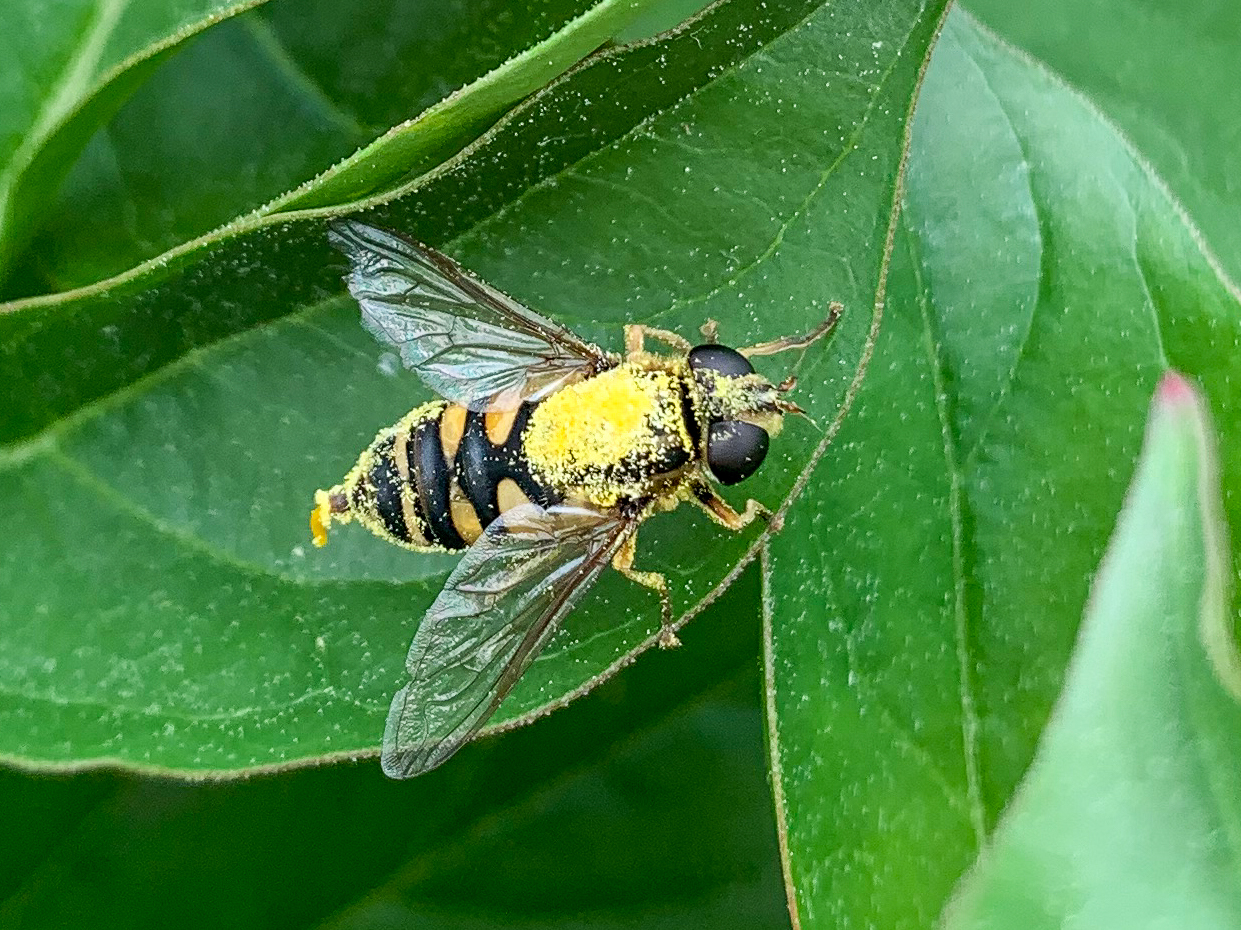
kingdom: Animalia
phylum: Arthropoda
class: Insecta
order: Diptera
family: Syrphidae
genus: Helophilus
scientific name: Helophilus fasciatus
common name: Narrow-headed marsh fly
